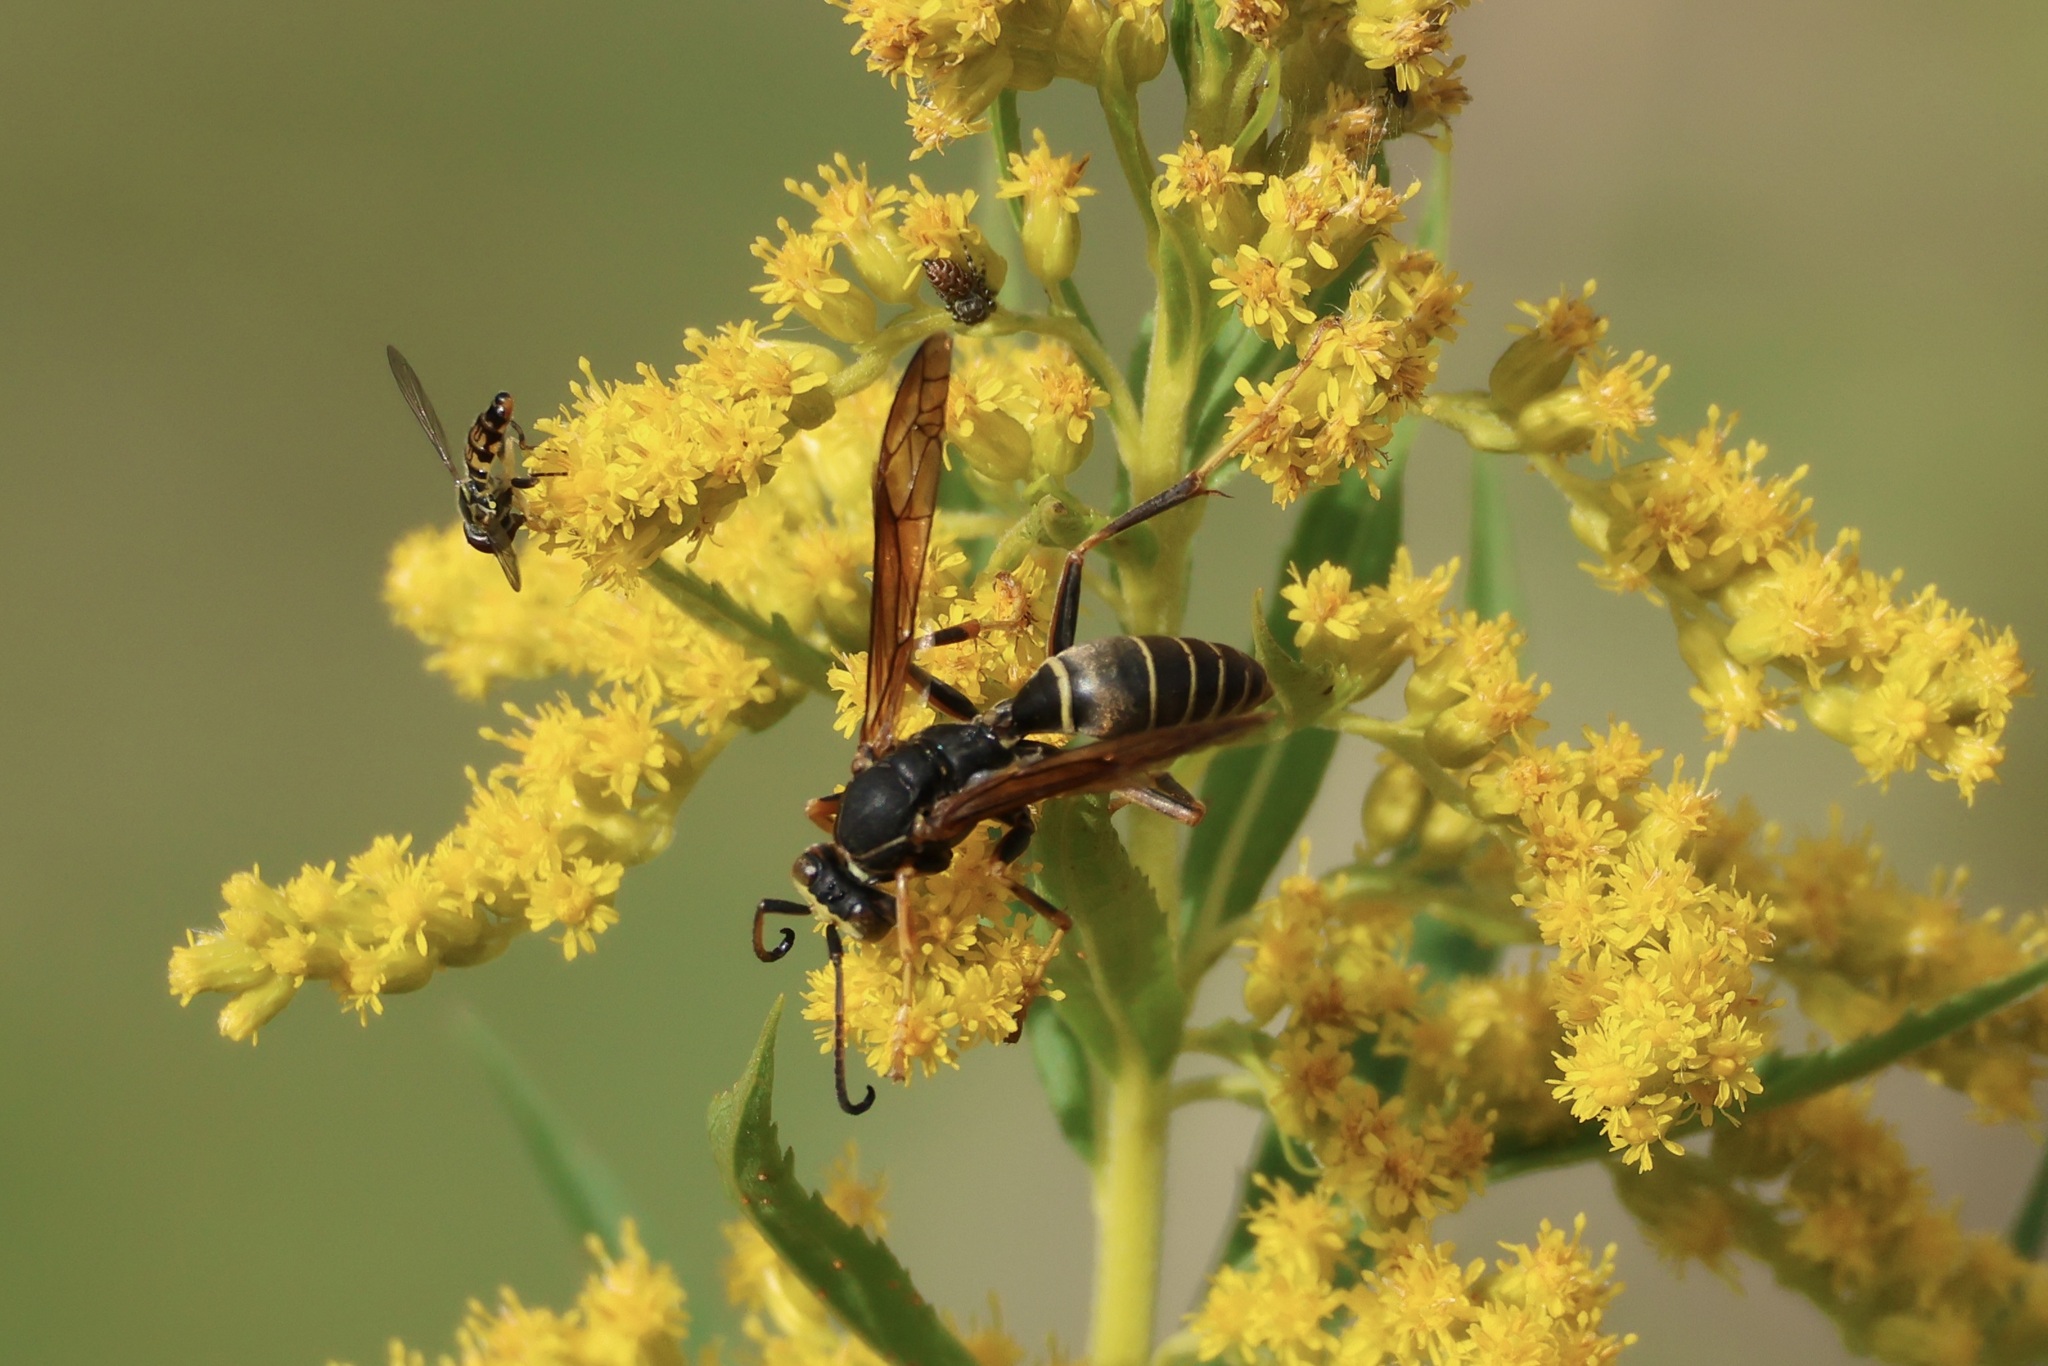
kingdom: Animalia
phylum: Arthropoda
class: Insecta
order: Hymenoptera
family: Eumenidae
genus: Polistes
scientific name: Polistes fuscatus
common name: Dark paper wasp
